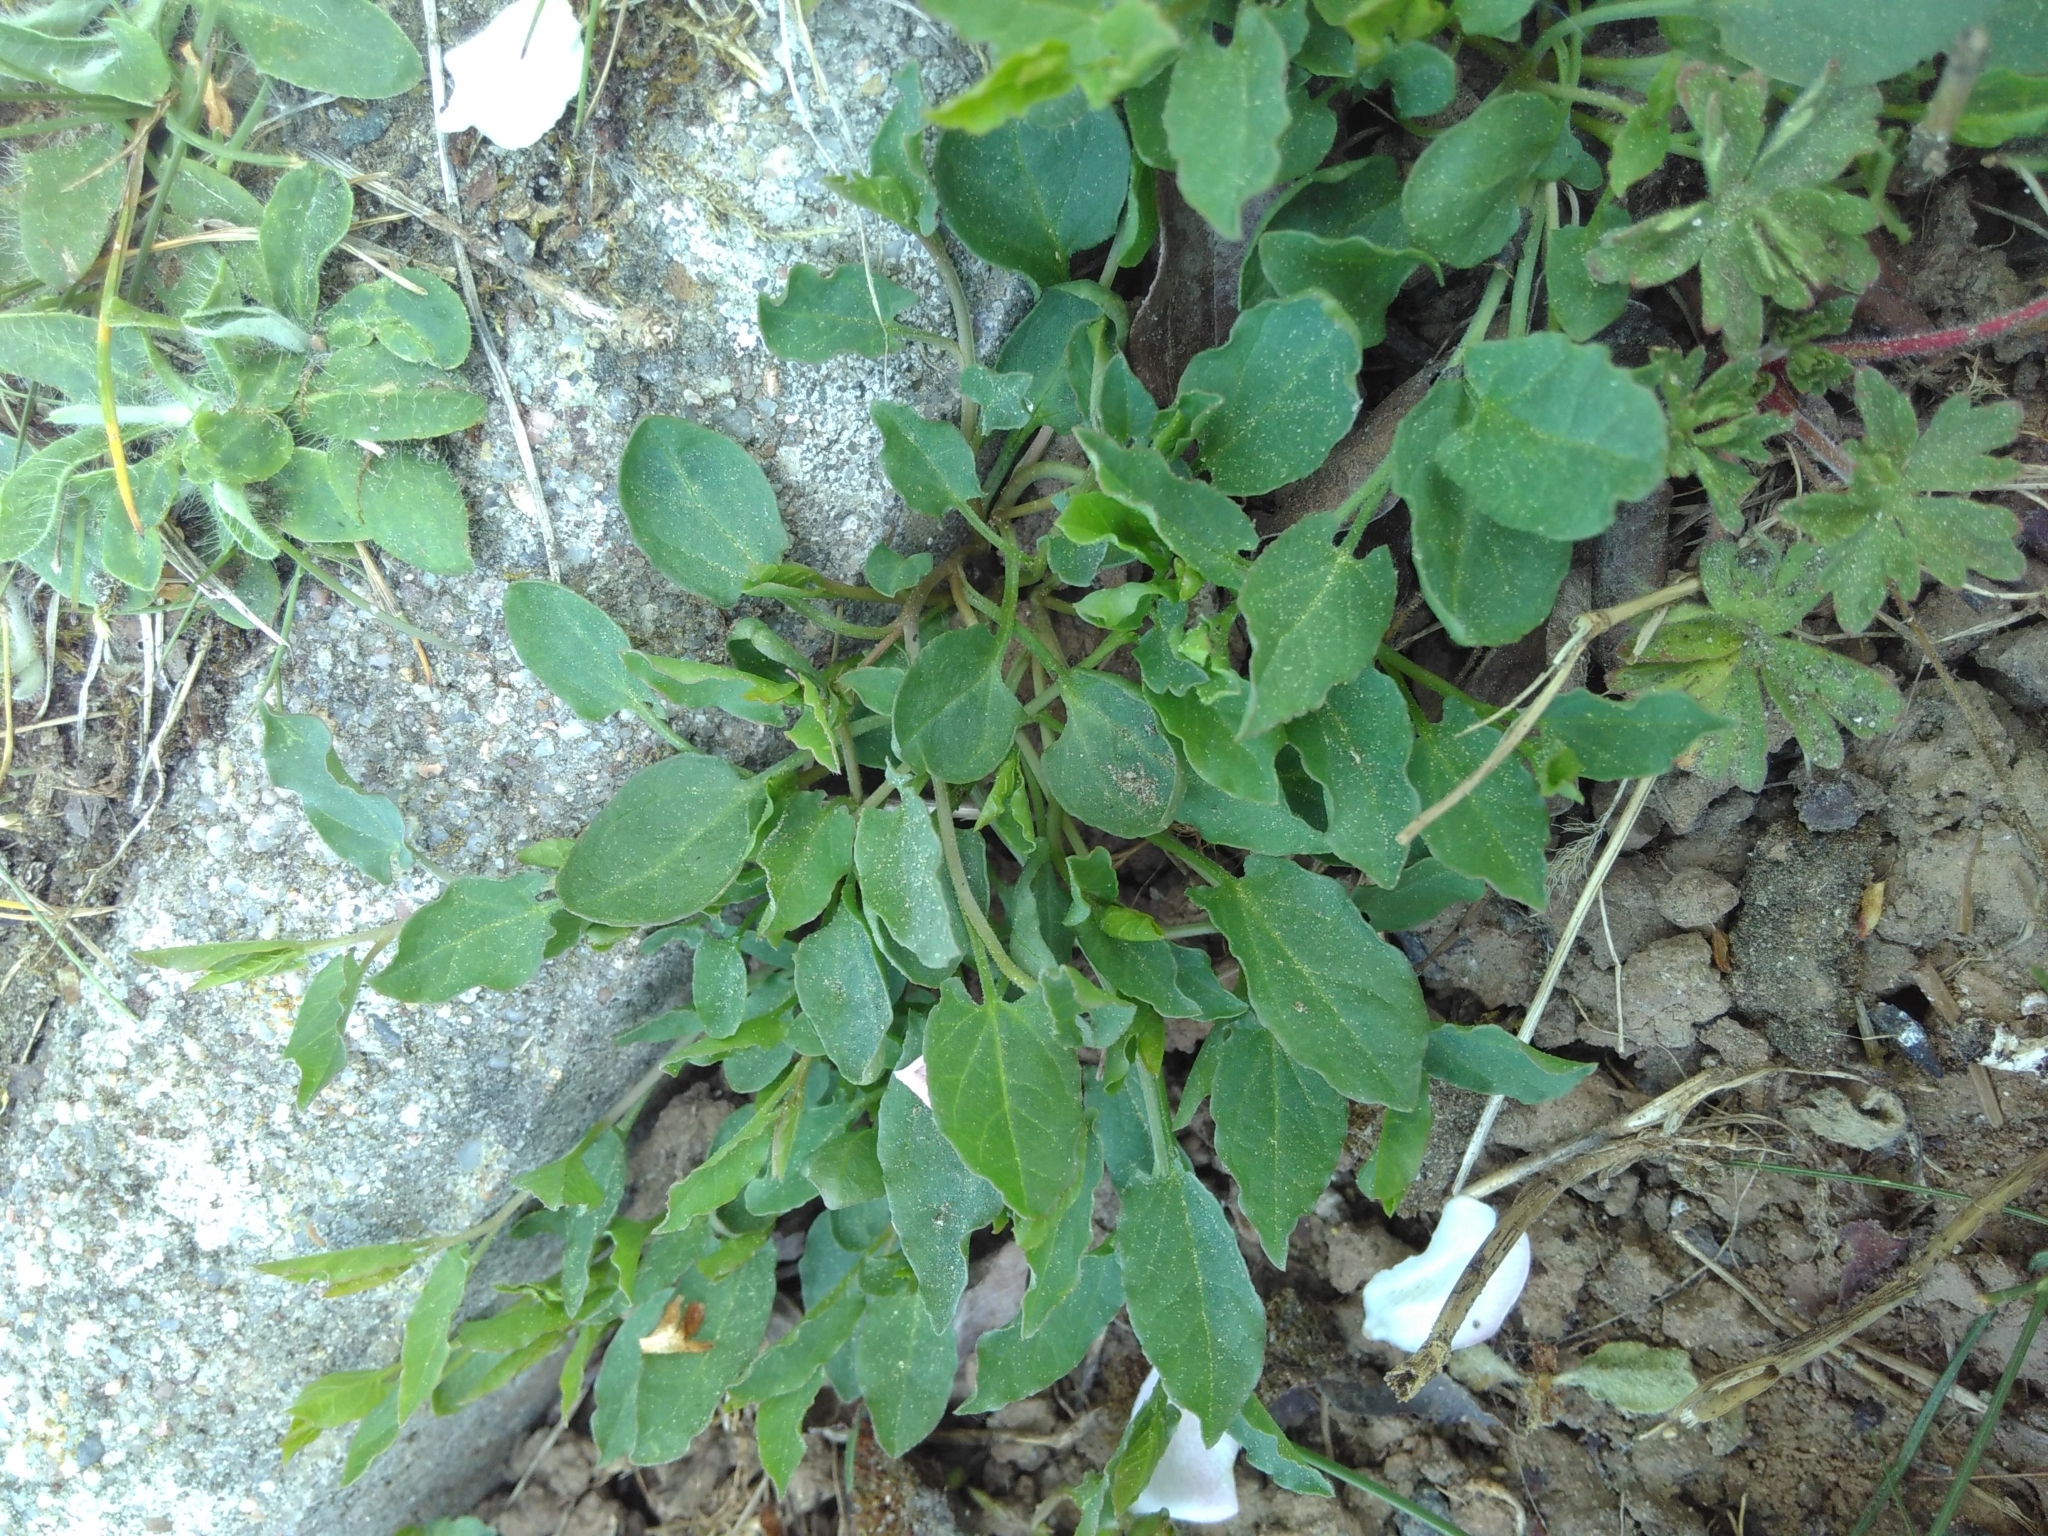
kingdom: Plantae
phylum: Tracheophyta
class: Magnoliopsida
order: Solanales
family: Convolvulaceae
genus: Convolvulus
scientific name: Convolvulus arvensis
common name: Field bindweed
